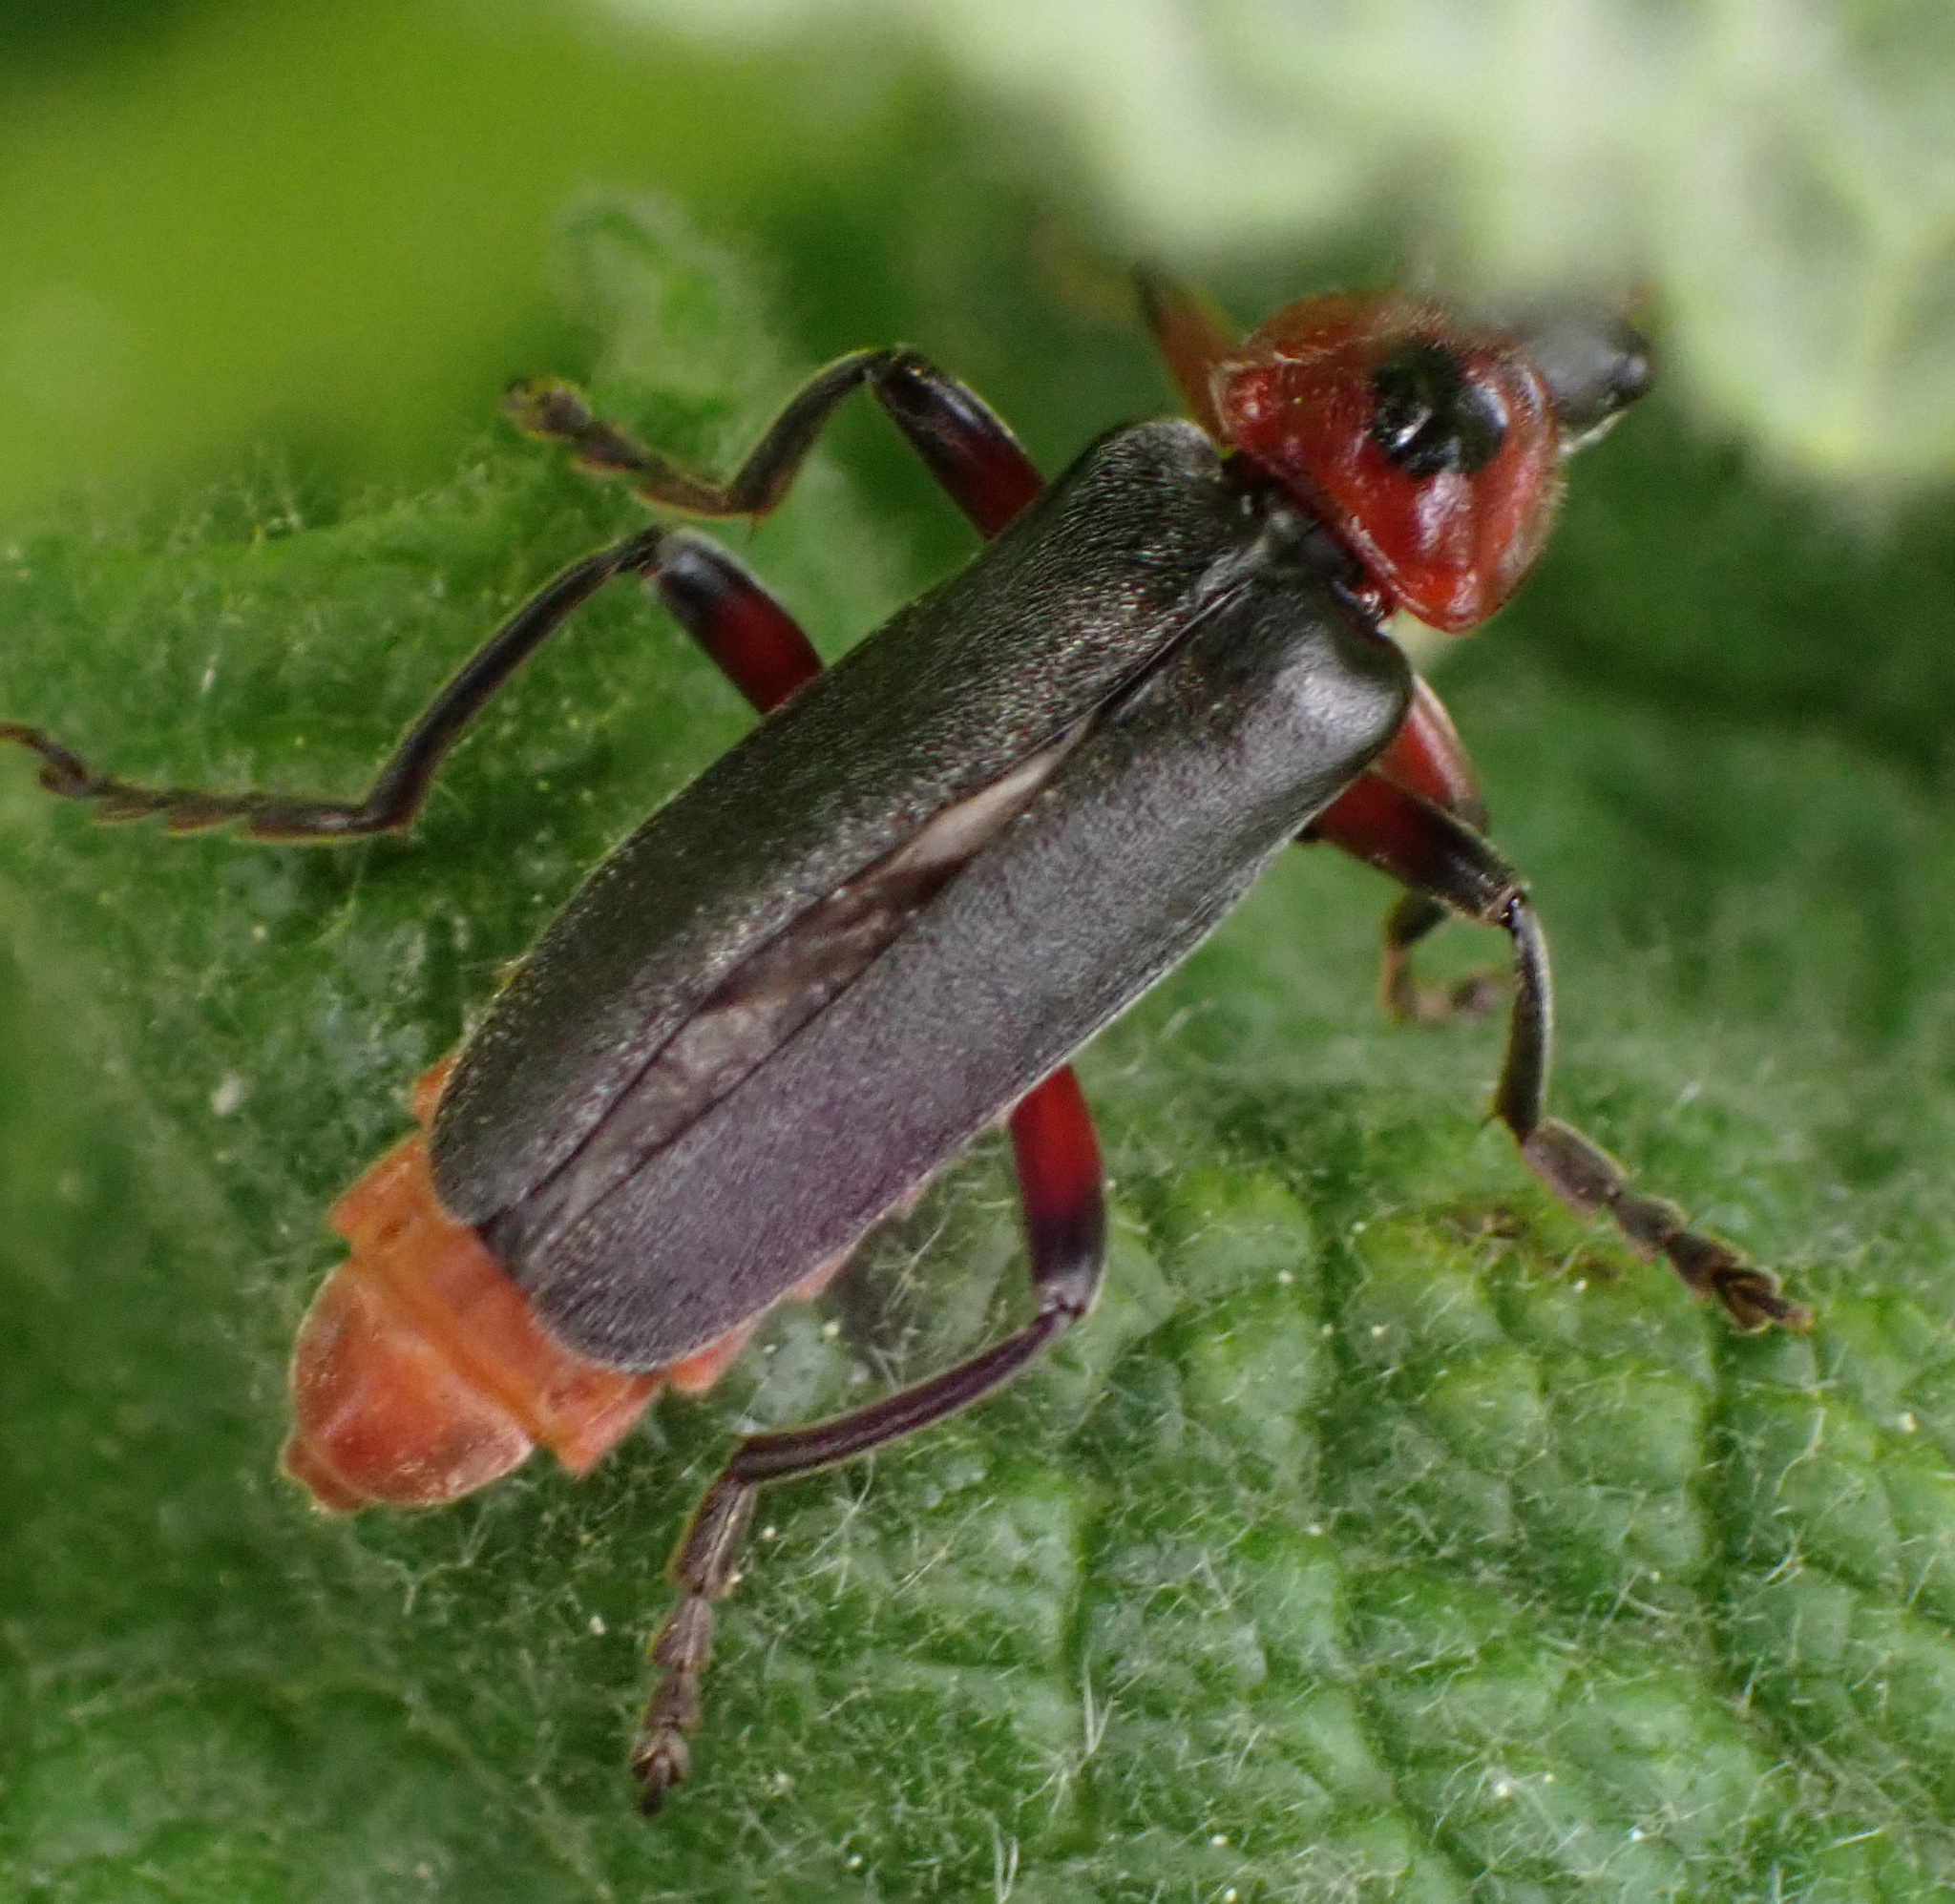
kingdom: Animalia
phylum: Arthropoda
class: Insecta
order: Coleoptera
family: Cantharidae
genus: Cantharis
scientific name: Cantharis rustica
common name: Soldier beetle
